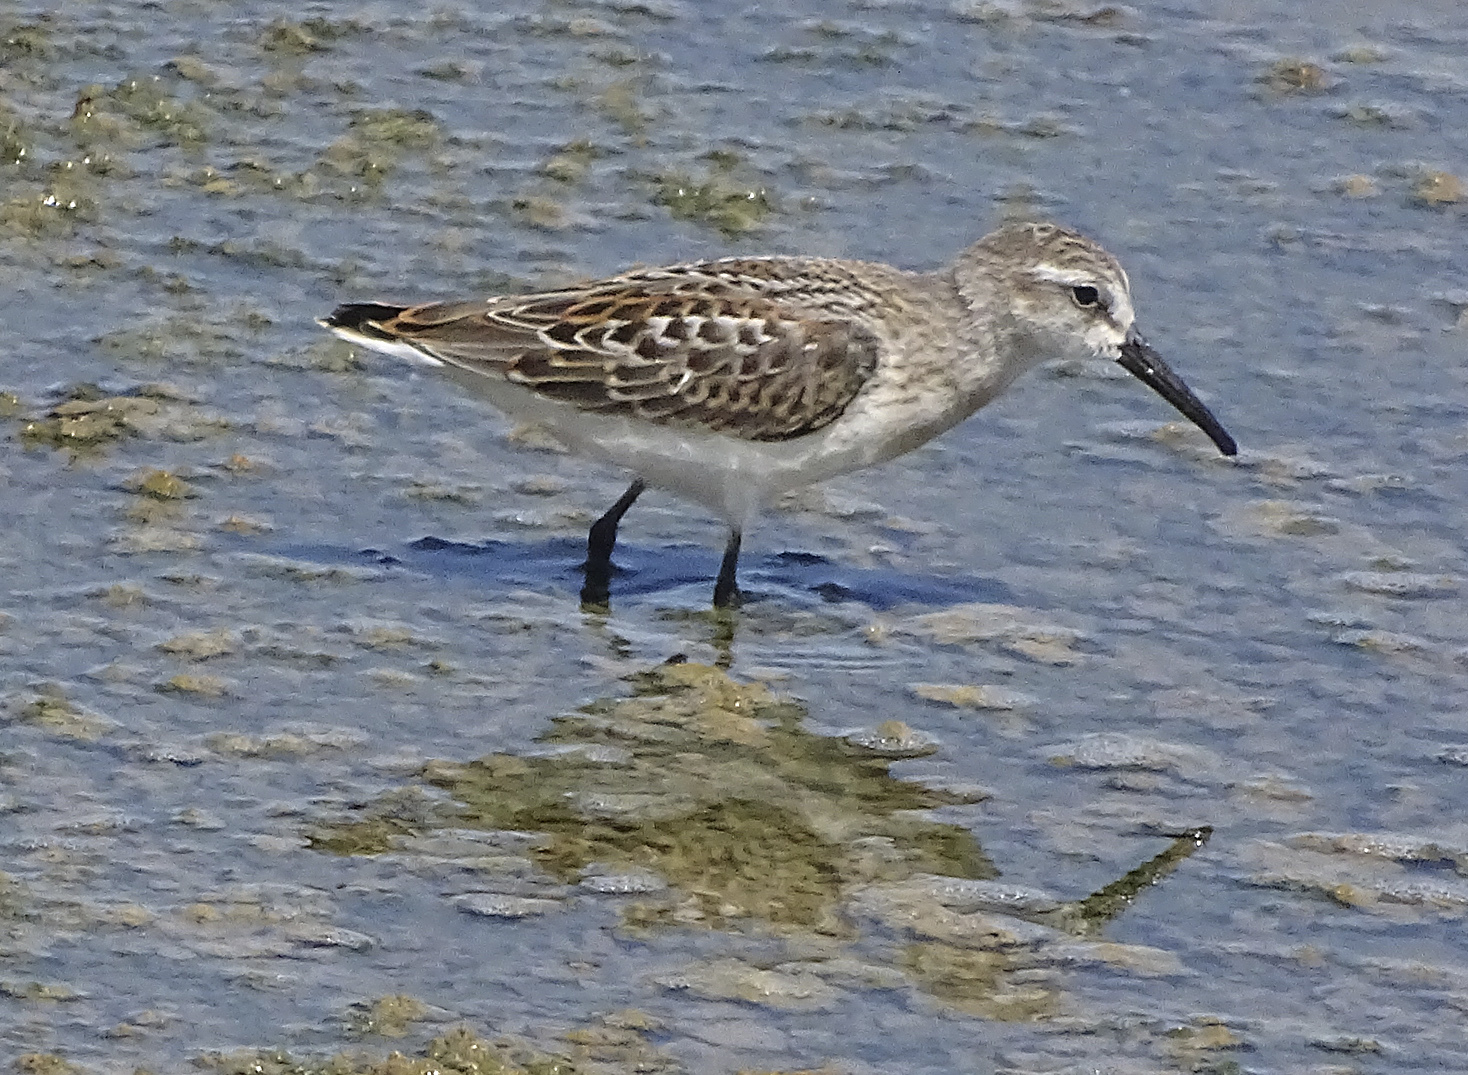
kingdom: Animalia
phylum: Chordata
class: Aves
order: Charadriiformes
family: Scolopacidae
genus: Calidris
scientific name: Calidris mauri
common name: Western sandpiper
